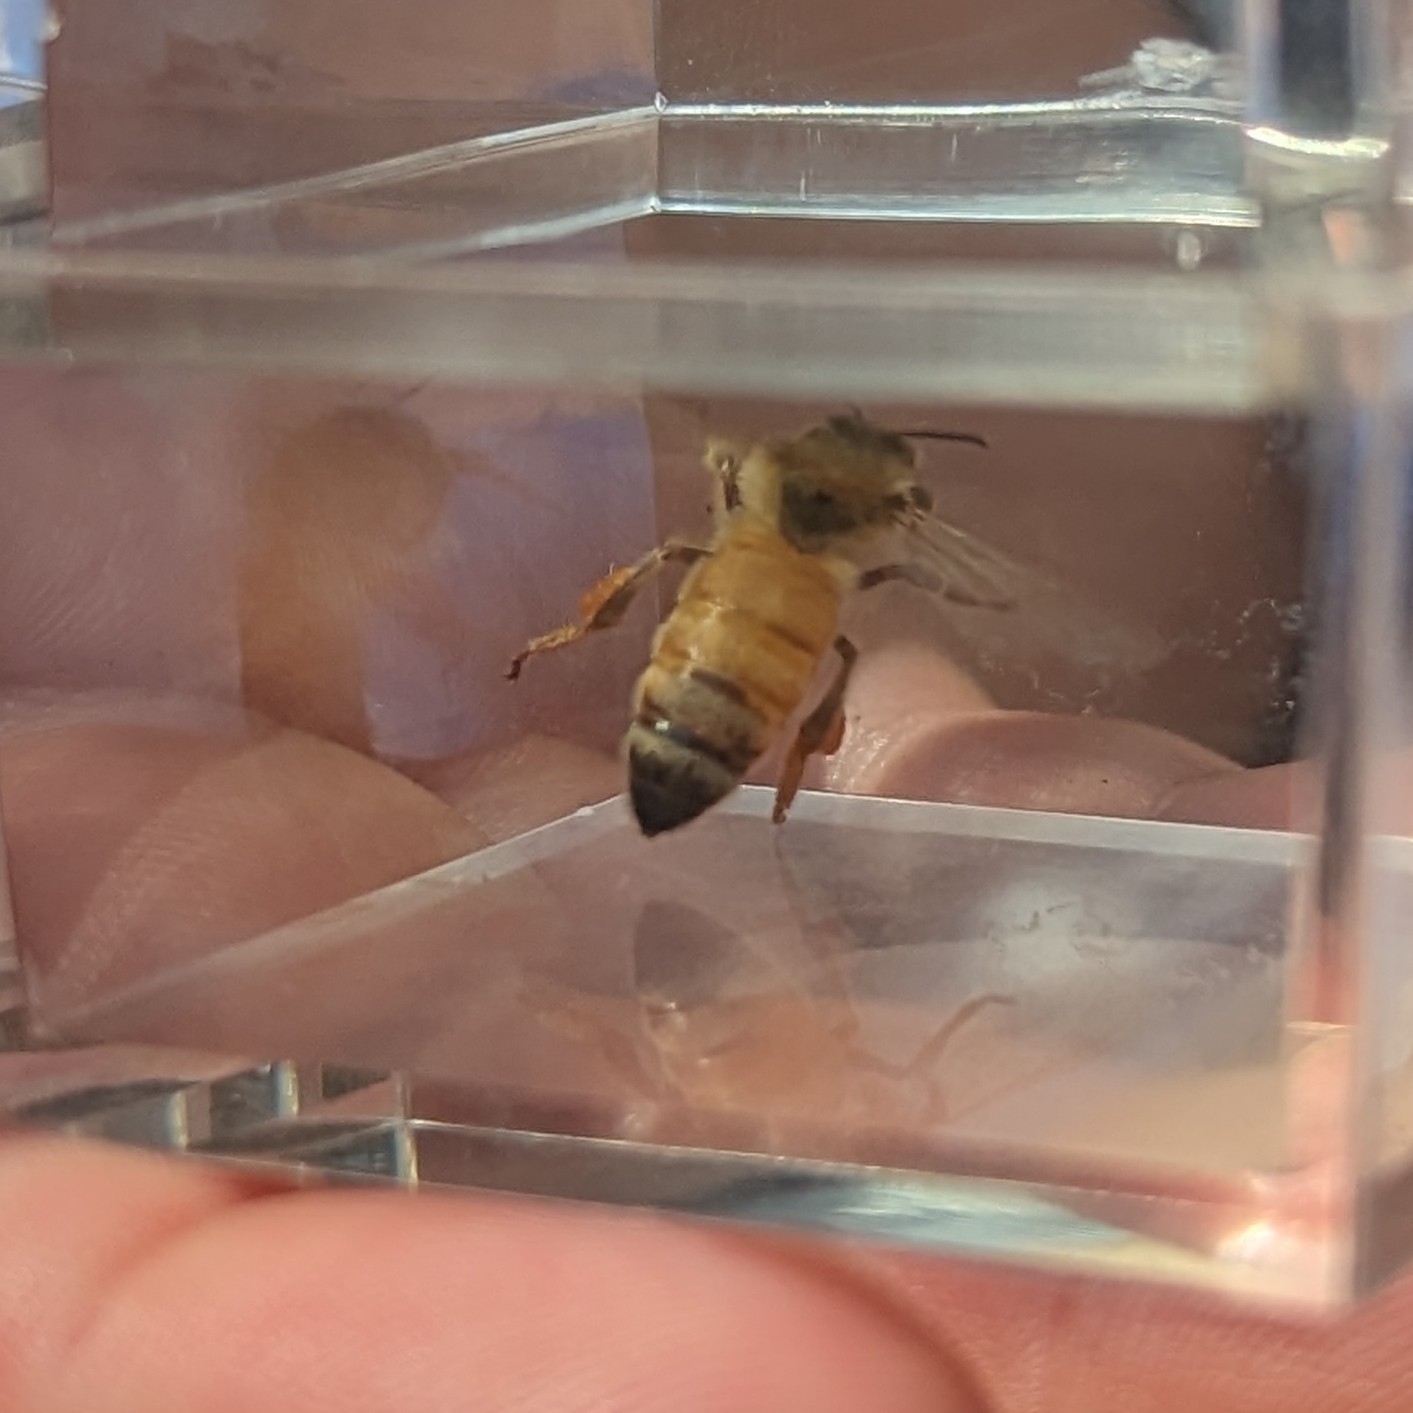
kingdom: Animalia
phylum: Arthropoda
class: Insecta
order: Hymenoptera
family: Apidae
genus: Apis
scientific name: Apis mellifera
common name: Honey bee
